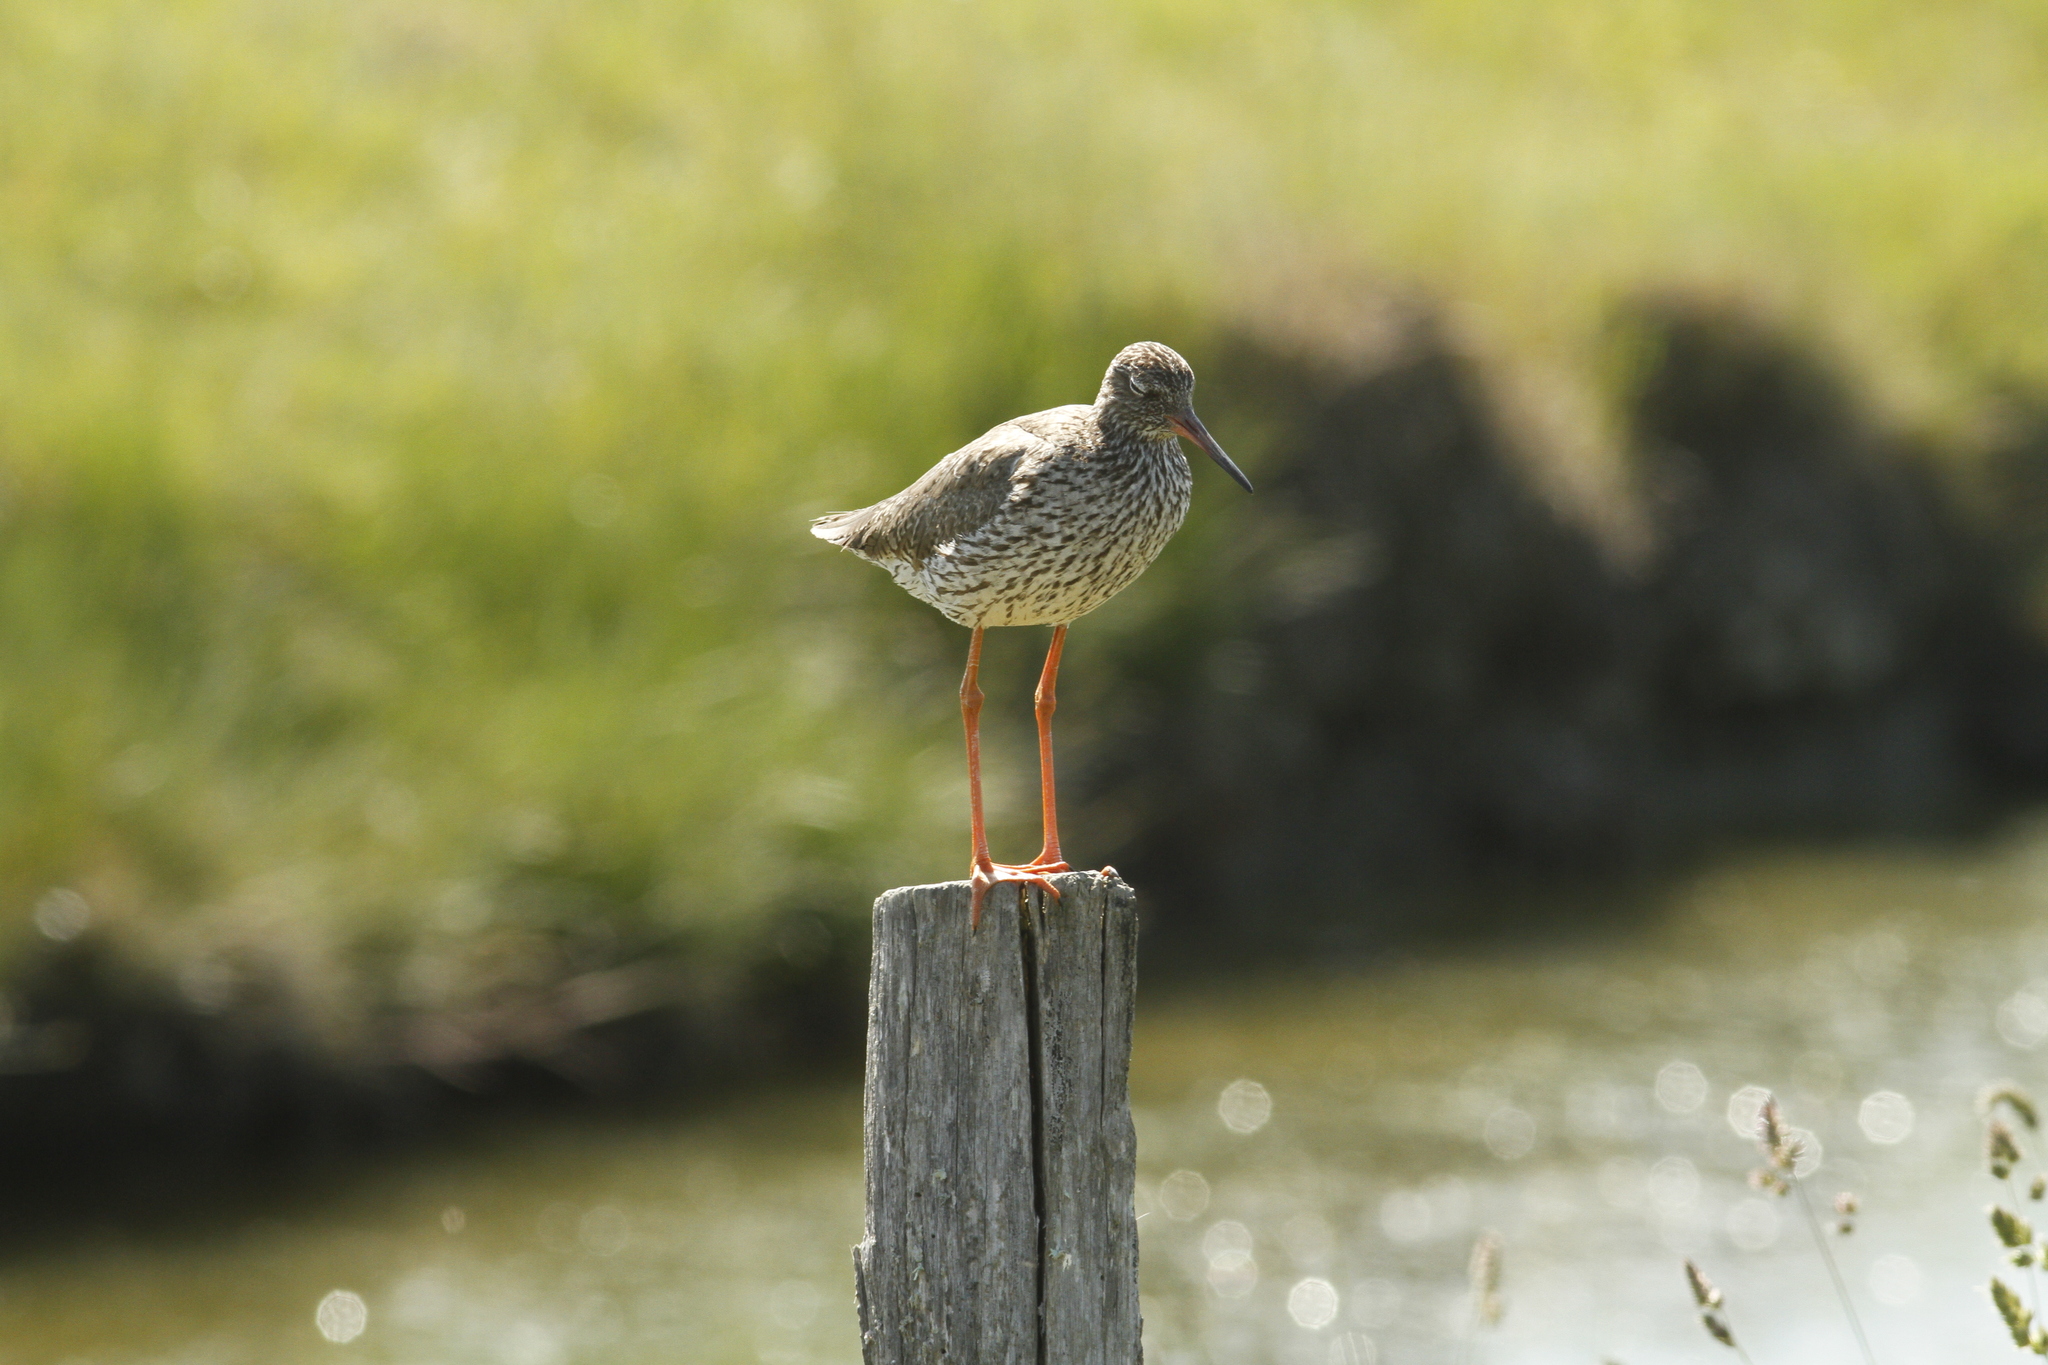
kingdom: Animalia
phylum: Chordata
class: Aves
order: Charadriiformes
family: Scolopacidae
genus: Tringa
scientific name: Tringa totanus
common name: Common redshank
